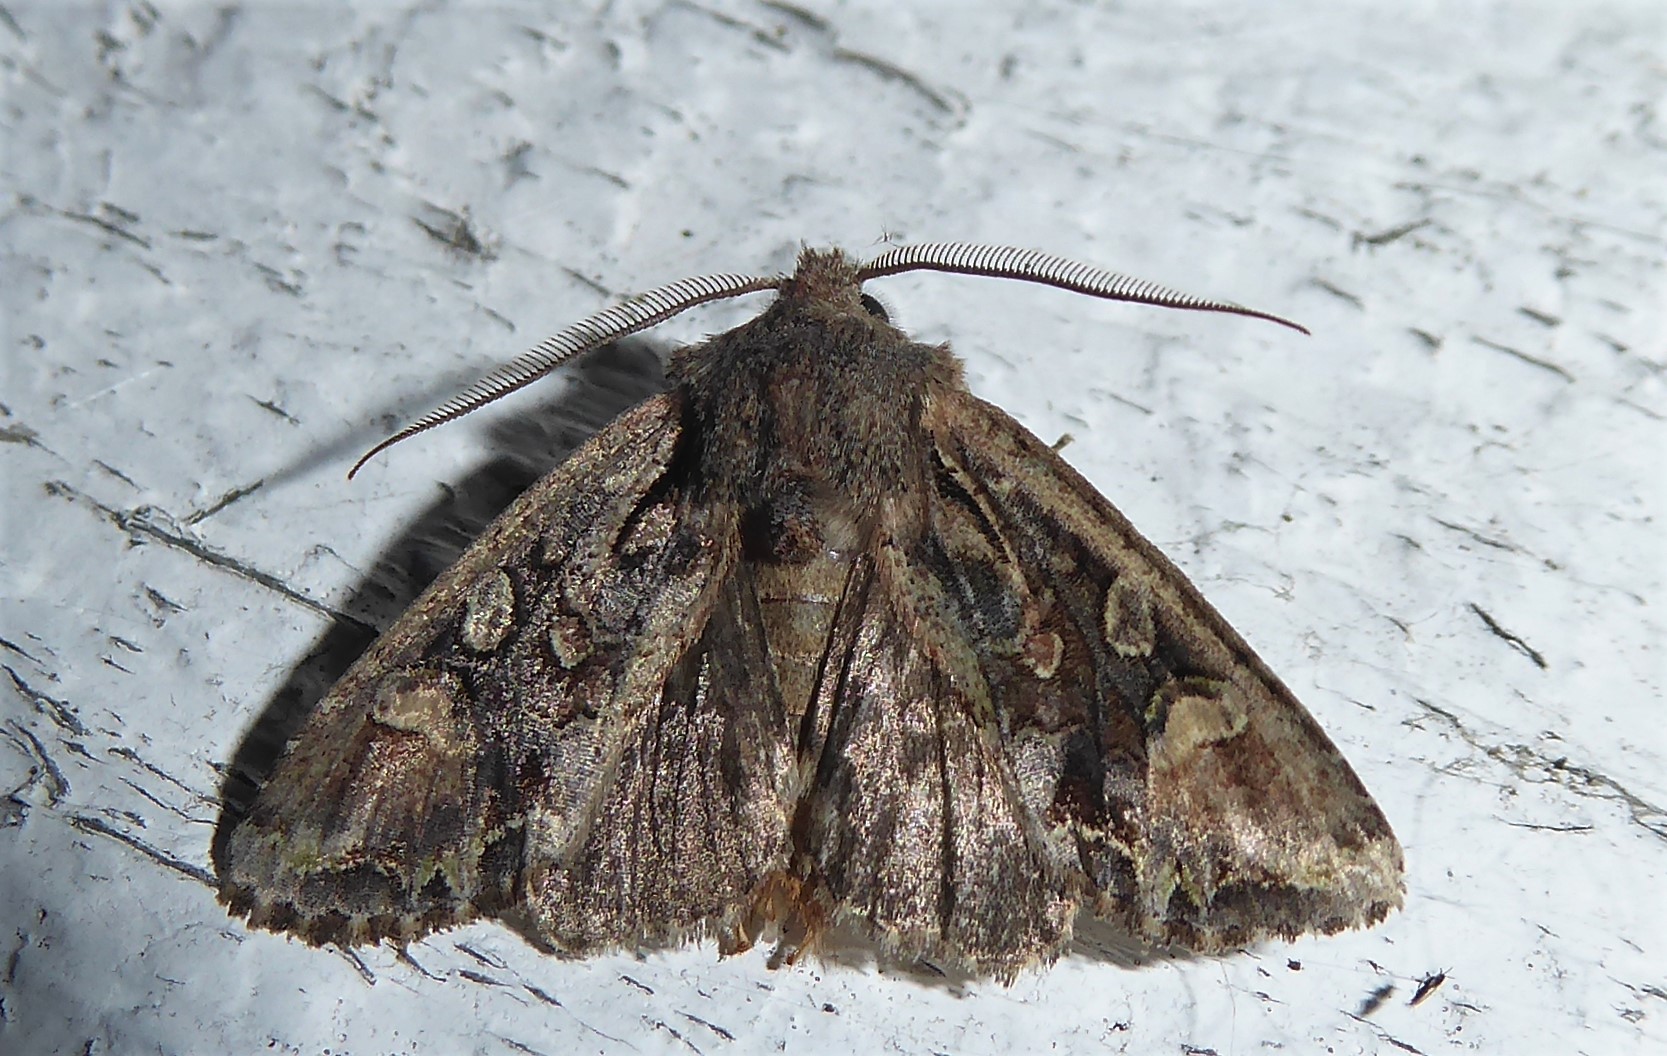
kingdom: Animalia
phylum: Arthropoda
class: Insecta
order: Lepidoptera
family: Noctuidae
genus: Ichneutica
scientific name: Ichneutica skelloni
